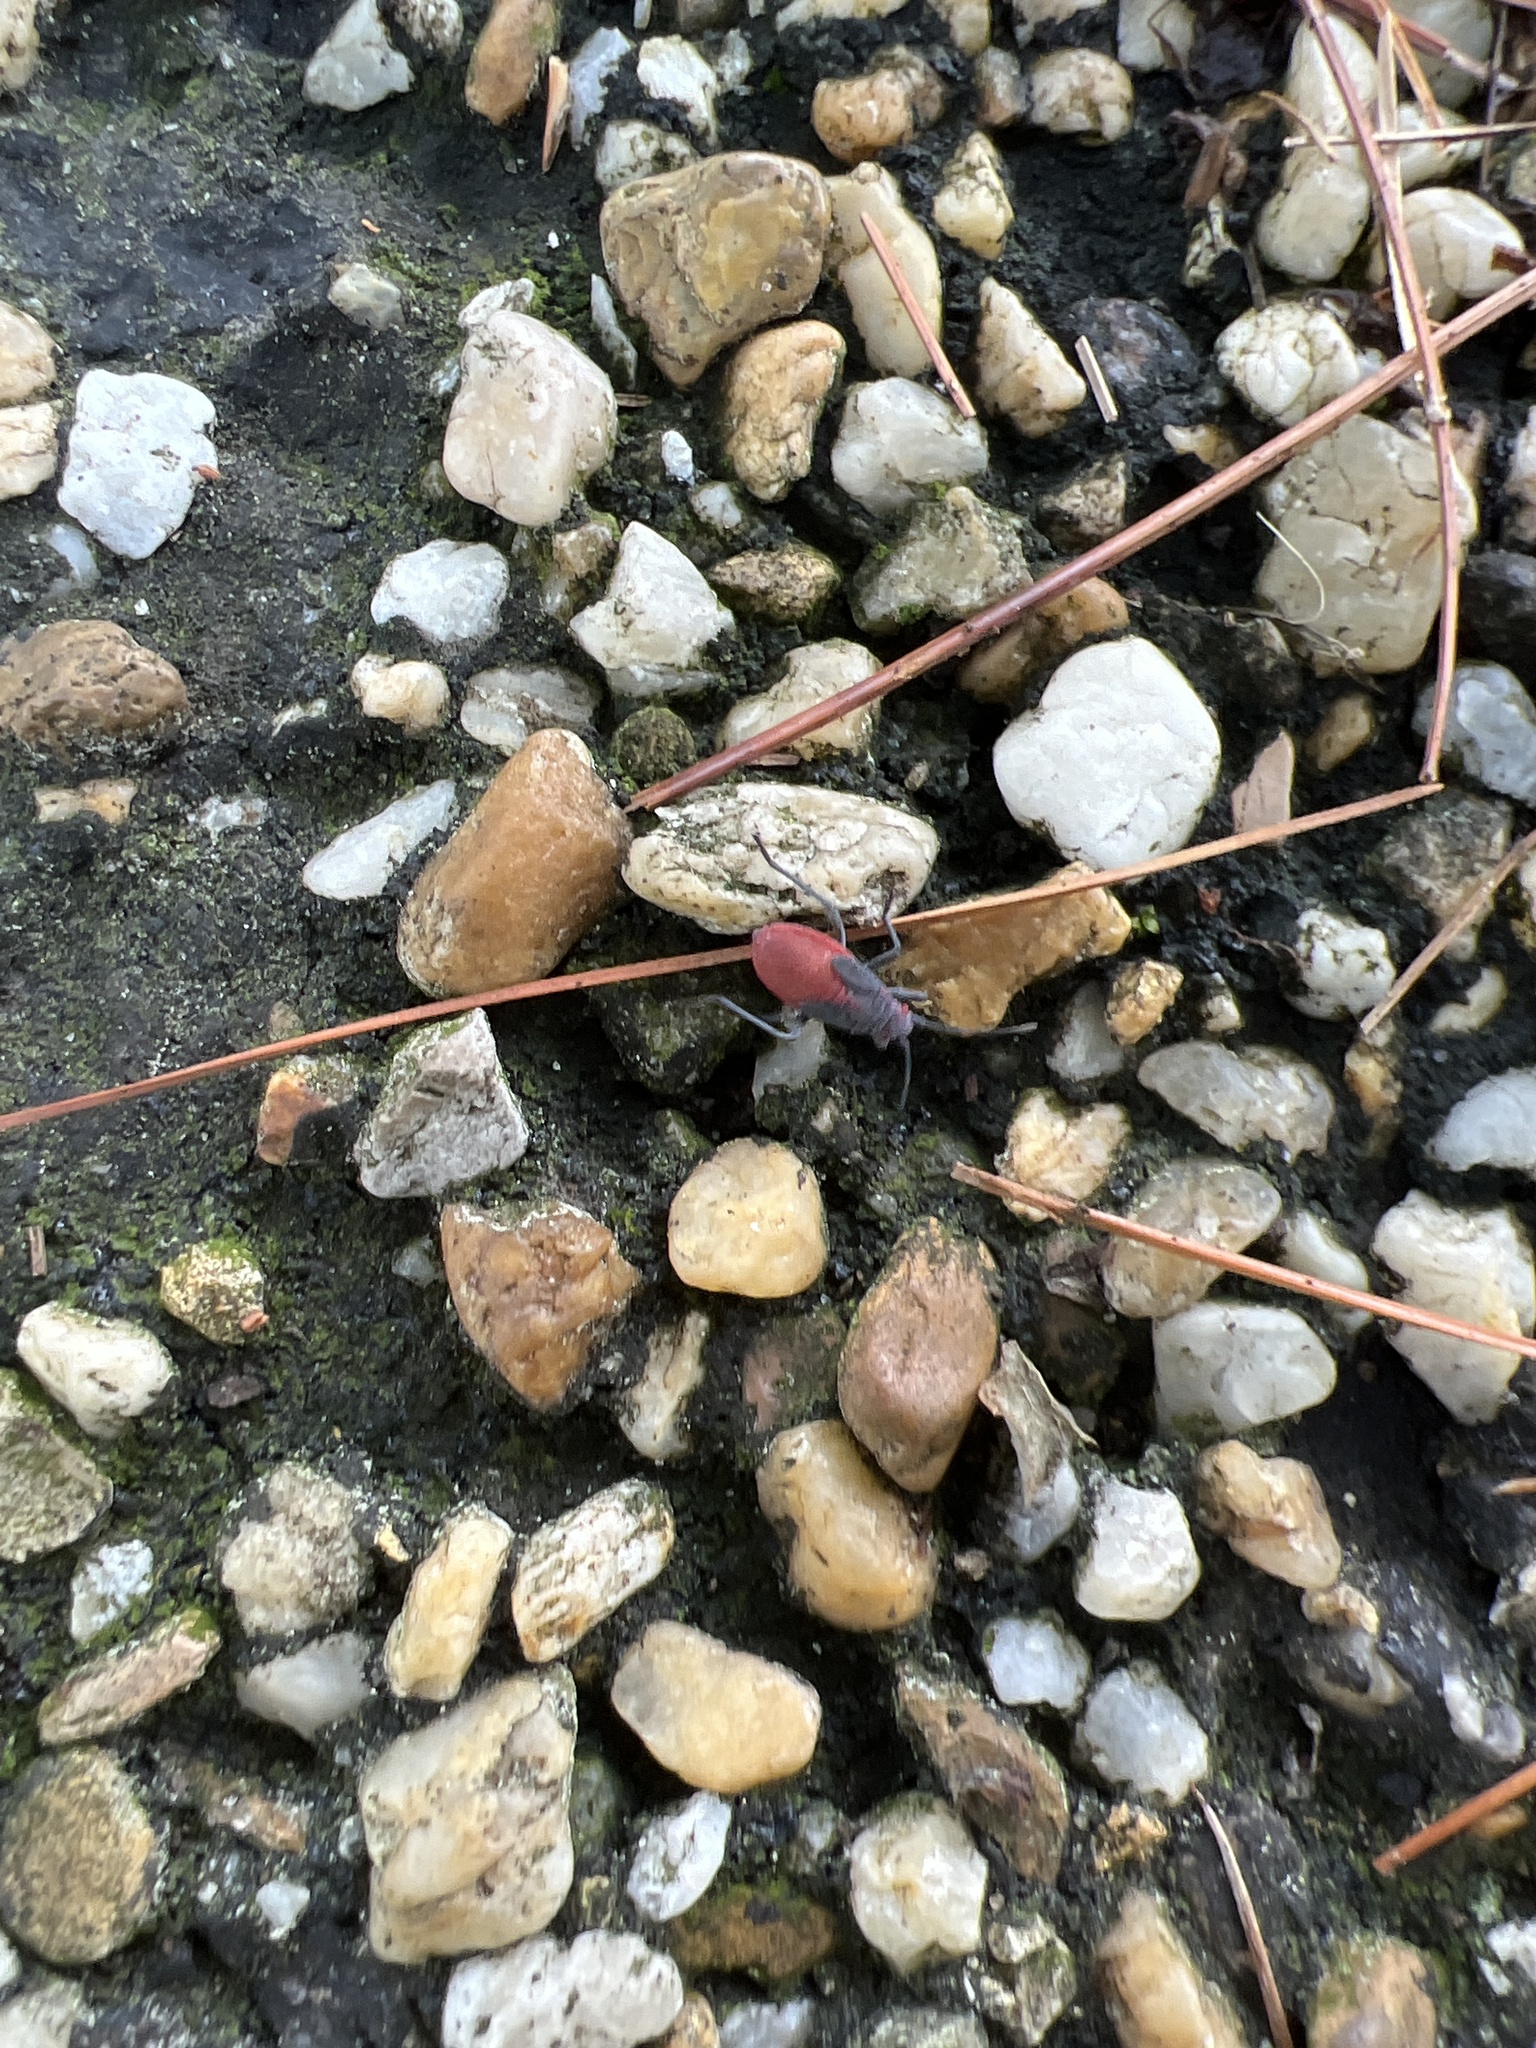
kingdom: Animalia
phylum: Arthropoda
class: Insecta
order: Hemiptera
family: Rhopalidae
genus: Jadera
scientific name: Jadera haematoloma
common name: Red-shouldered bug
